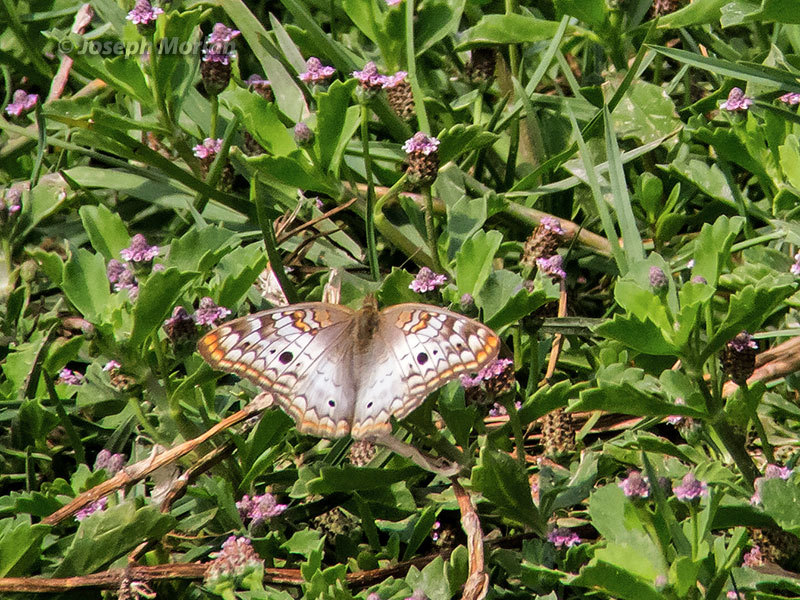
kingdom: Animalia
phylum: Arthropoda
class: Insecta
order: Lepidoptera
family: Nymphalidae
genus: Anartia
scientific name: Anartia jatrophae
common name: White peacock
